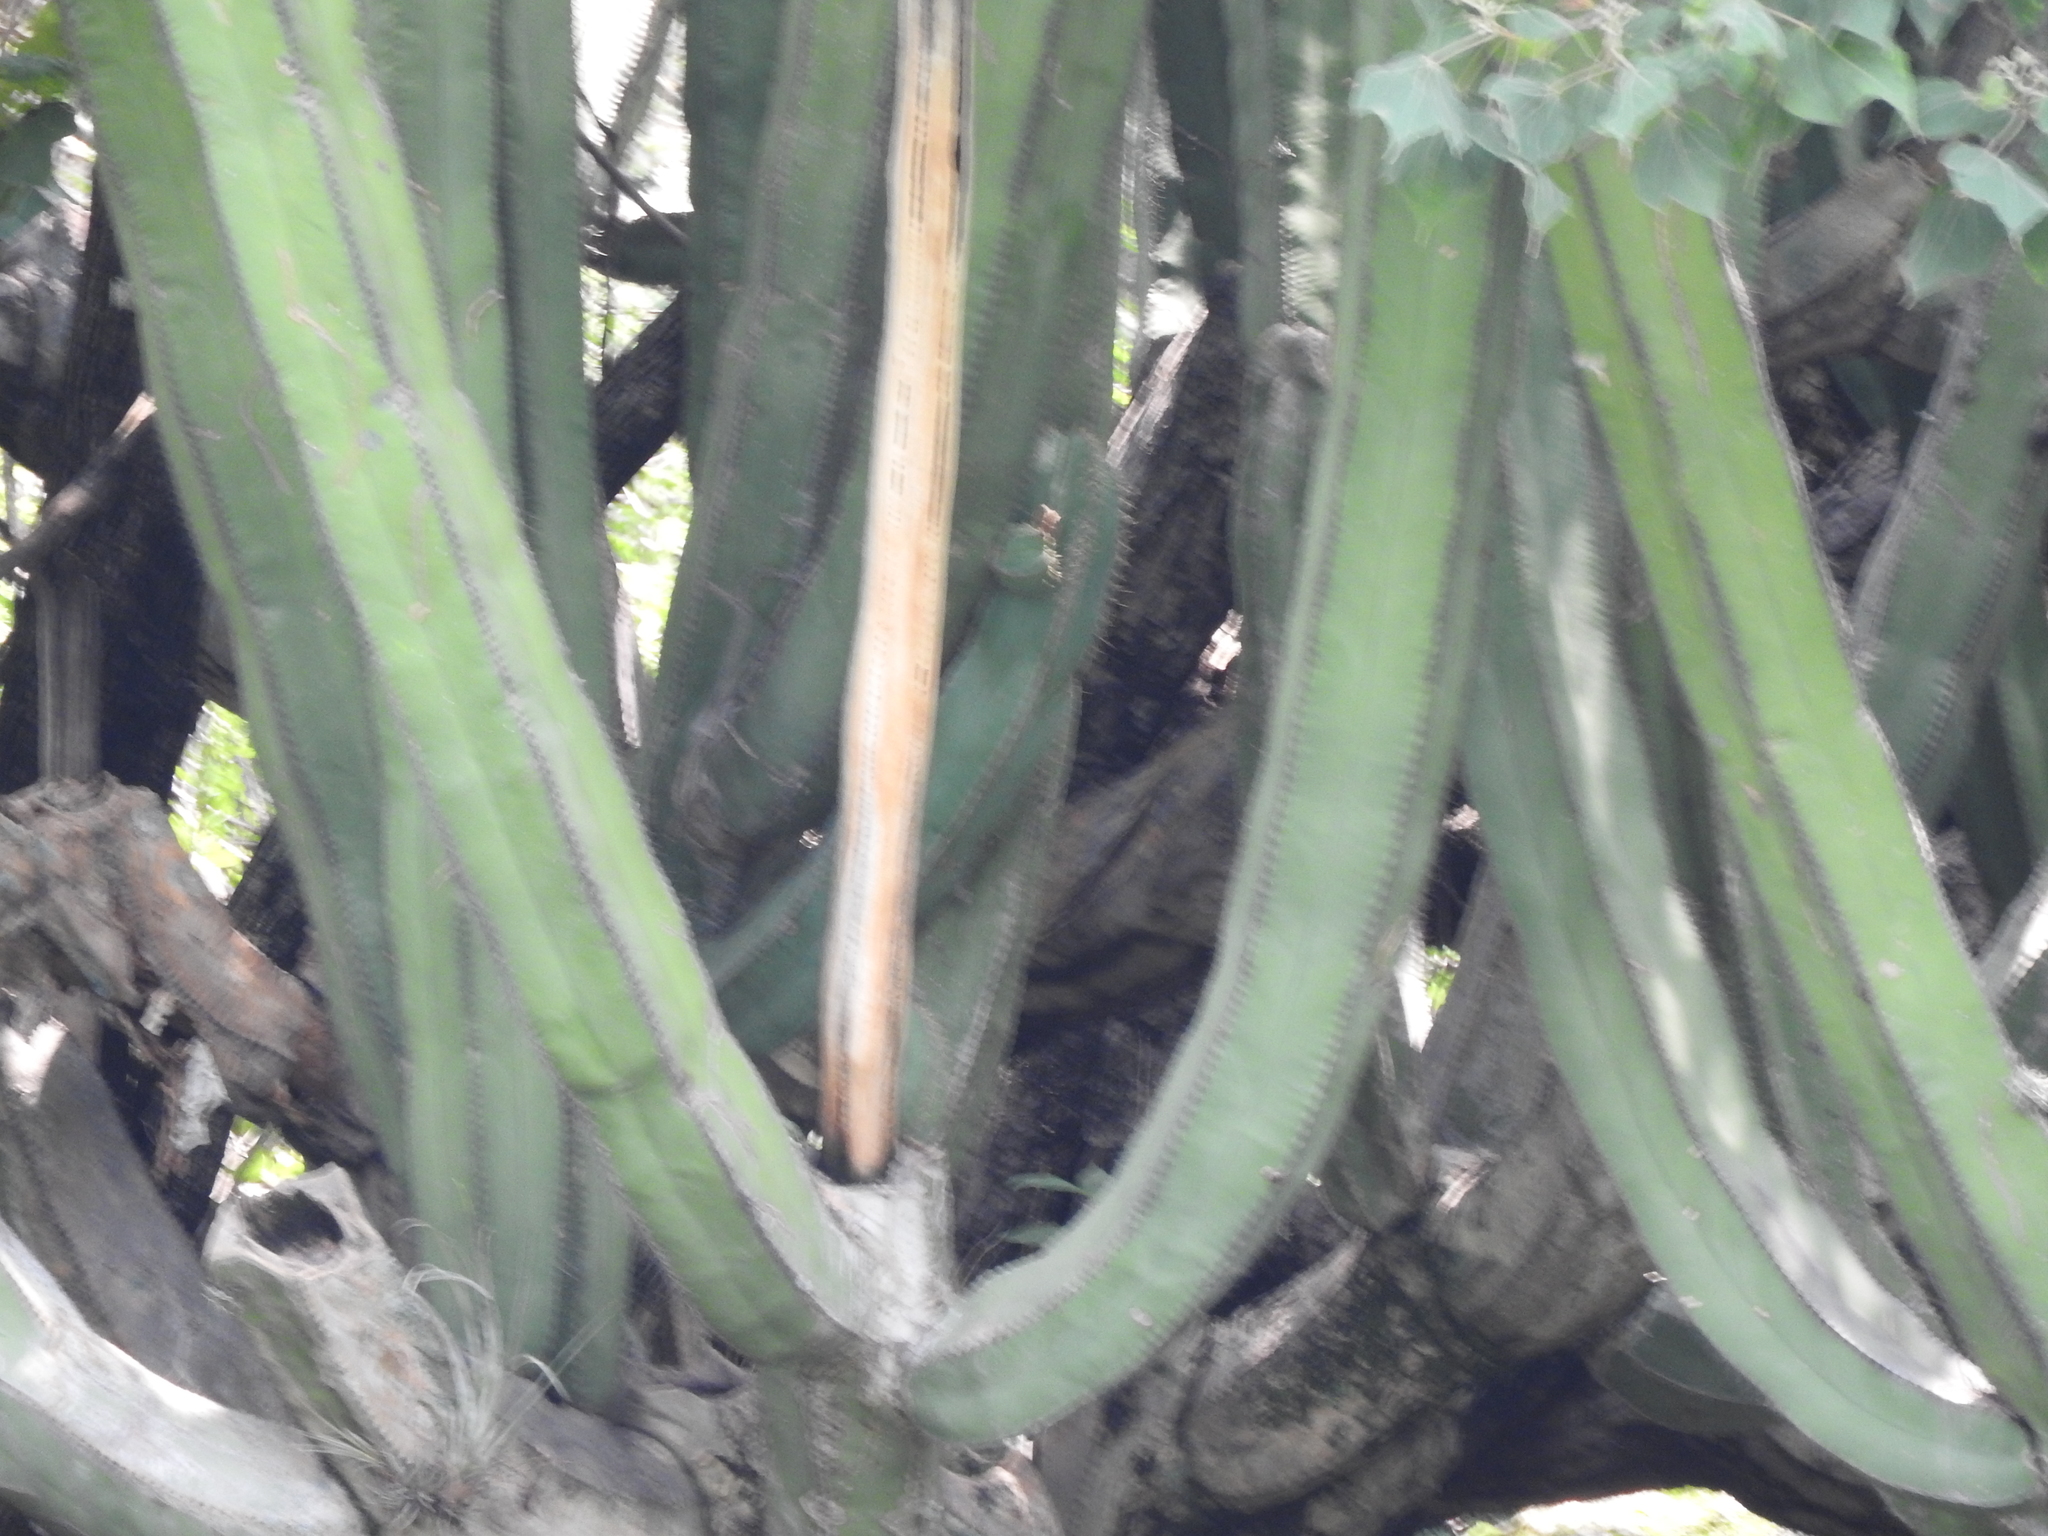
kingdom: Plantae
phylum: Tracheophyta
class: Magnoliopsida
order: Caryophyllales
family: Cactaceae
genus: Stenocereus
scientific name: Stenocereus dumortieri
